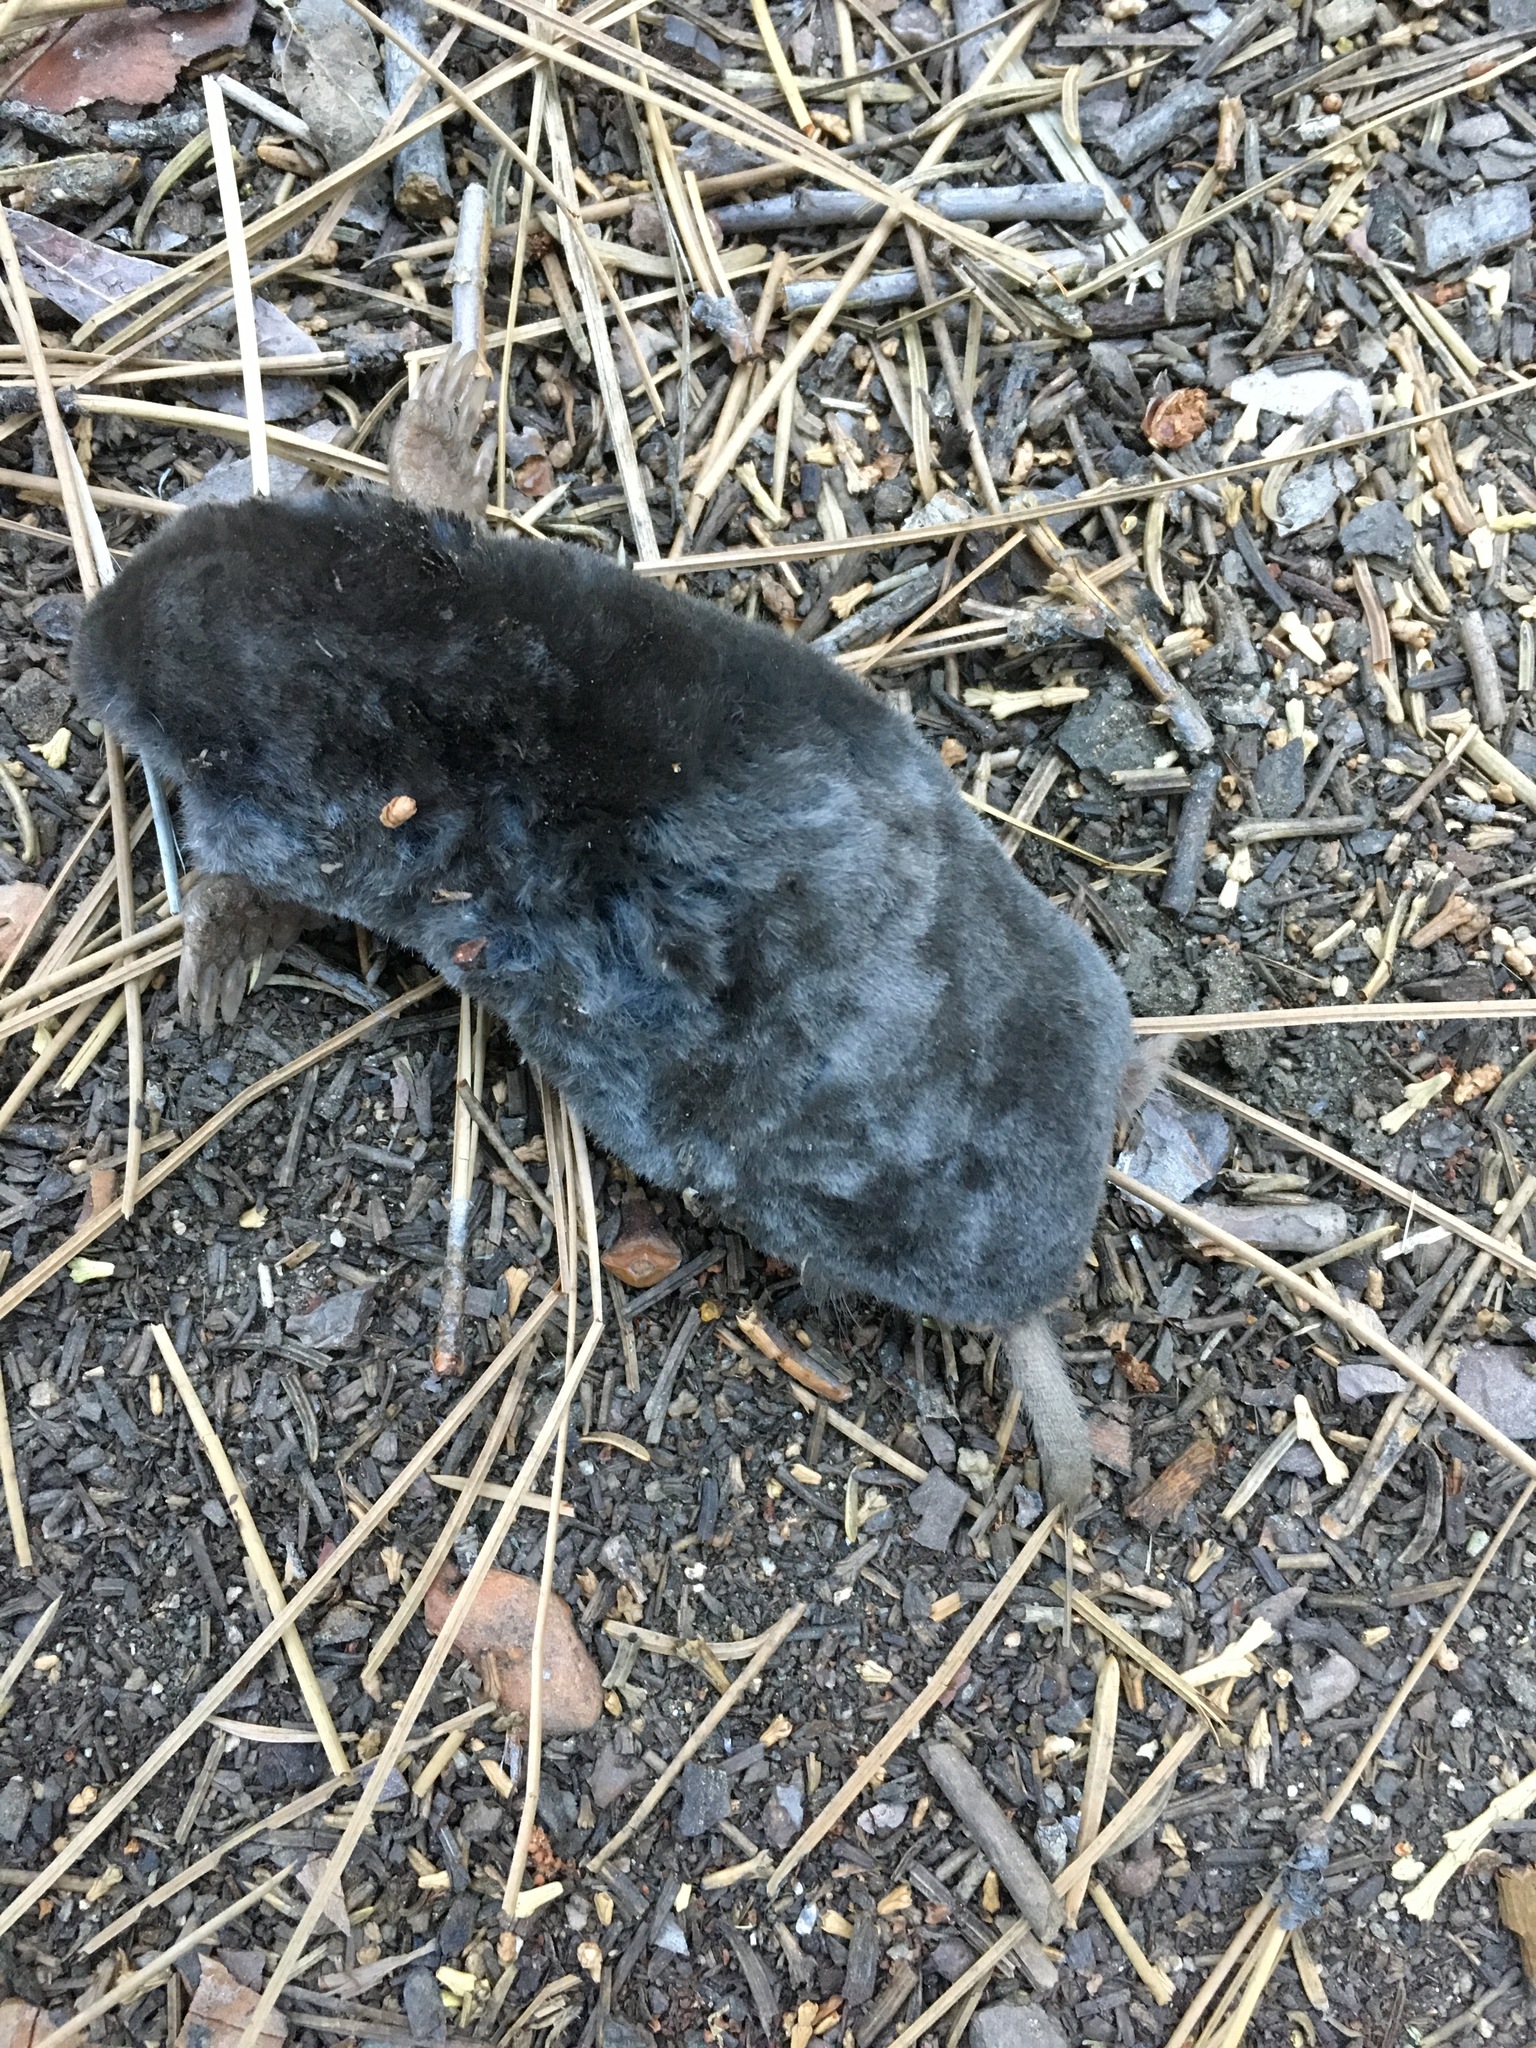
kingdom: Animalia
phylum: Chordata
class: Mammalia
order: Soricomorpha
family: Talpidae
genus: Scapanus
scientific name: Scapanus latimanus
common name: Broad-footed mole
